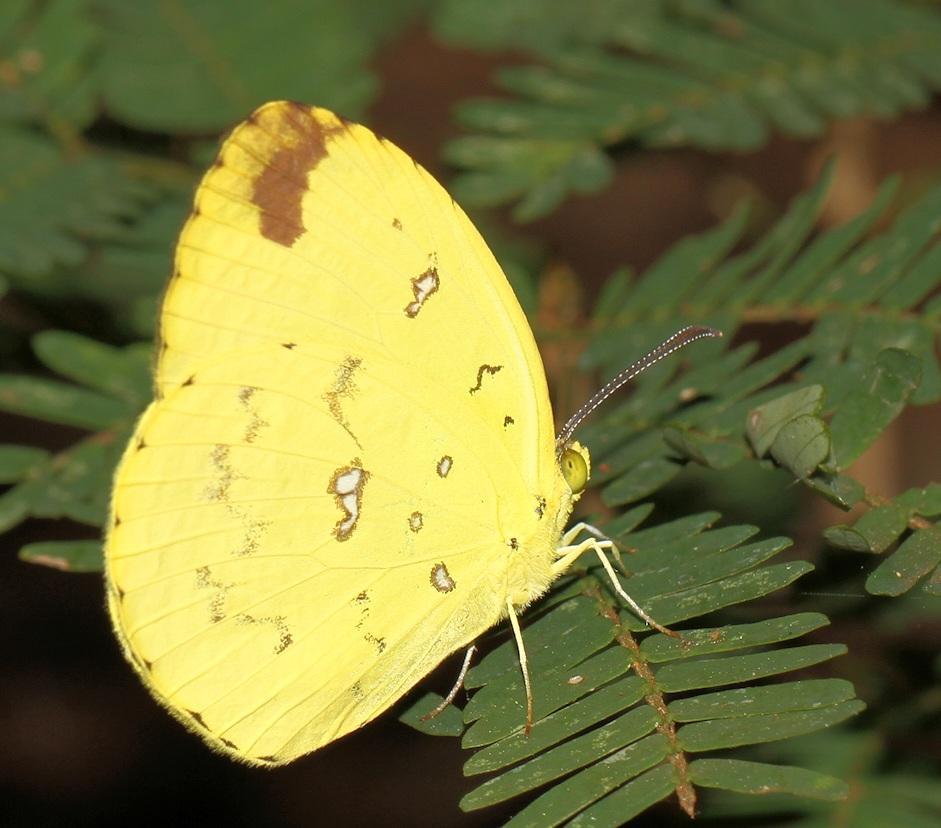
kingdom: Animalia
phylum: Arthropoda
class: Insecta
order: Lepidoptera
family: Pieridae
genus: Eurema
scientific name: Eurema floricola
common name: Malagasy grass yellow
